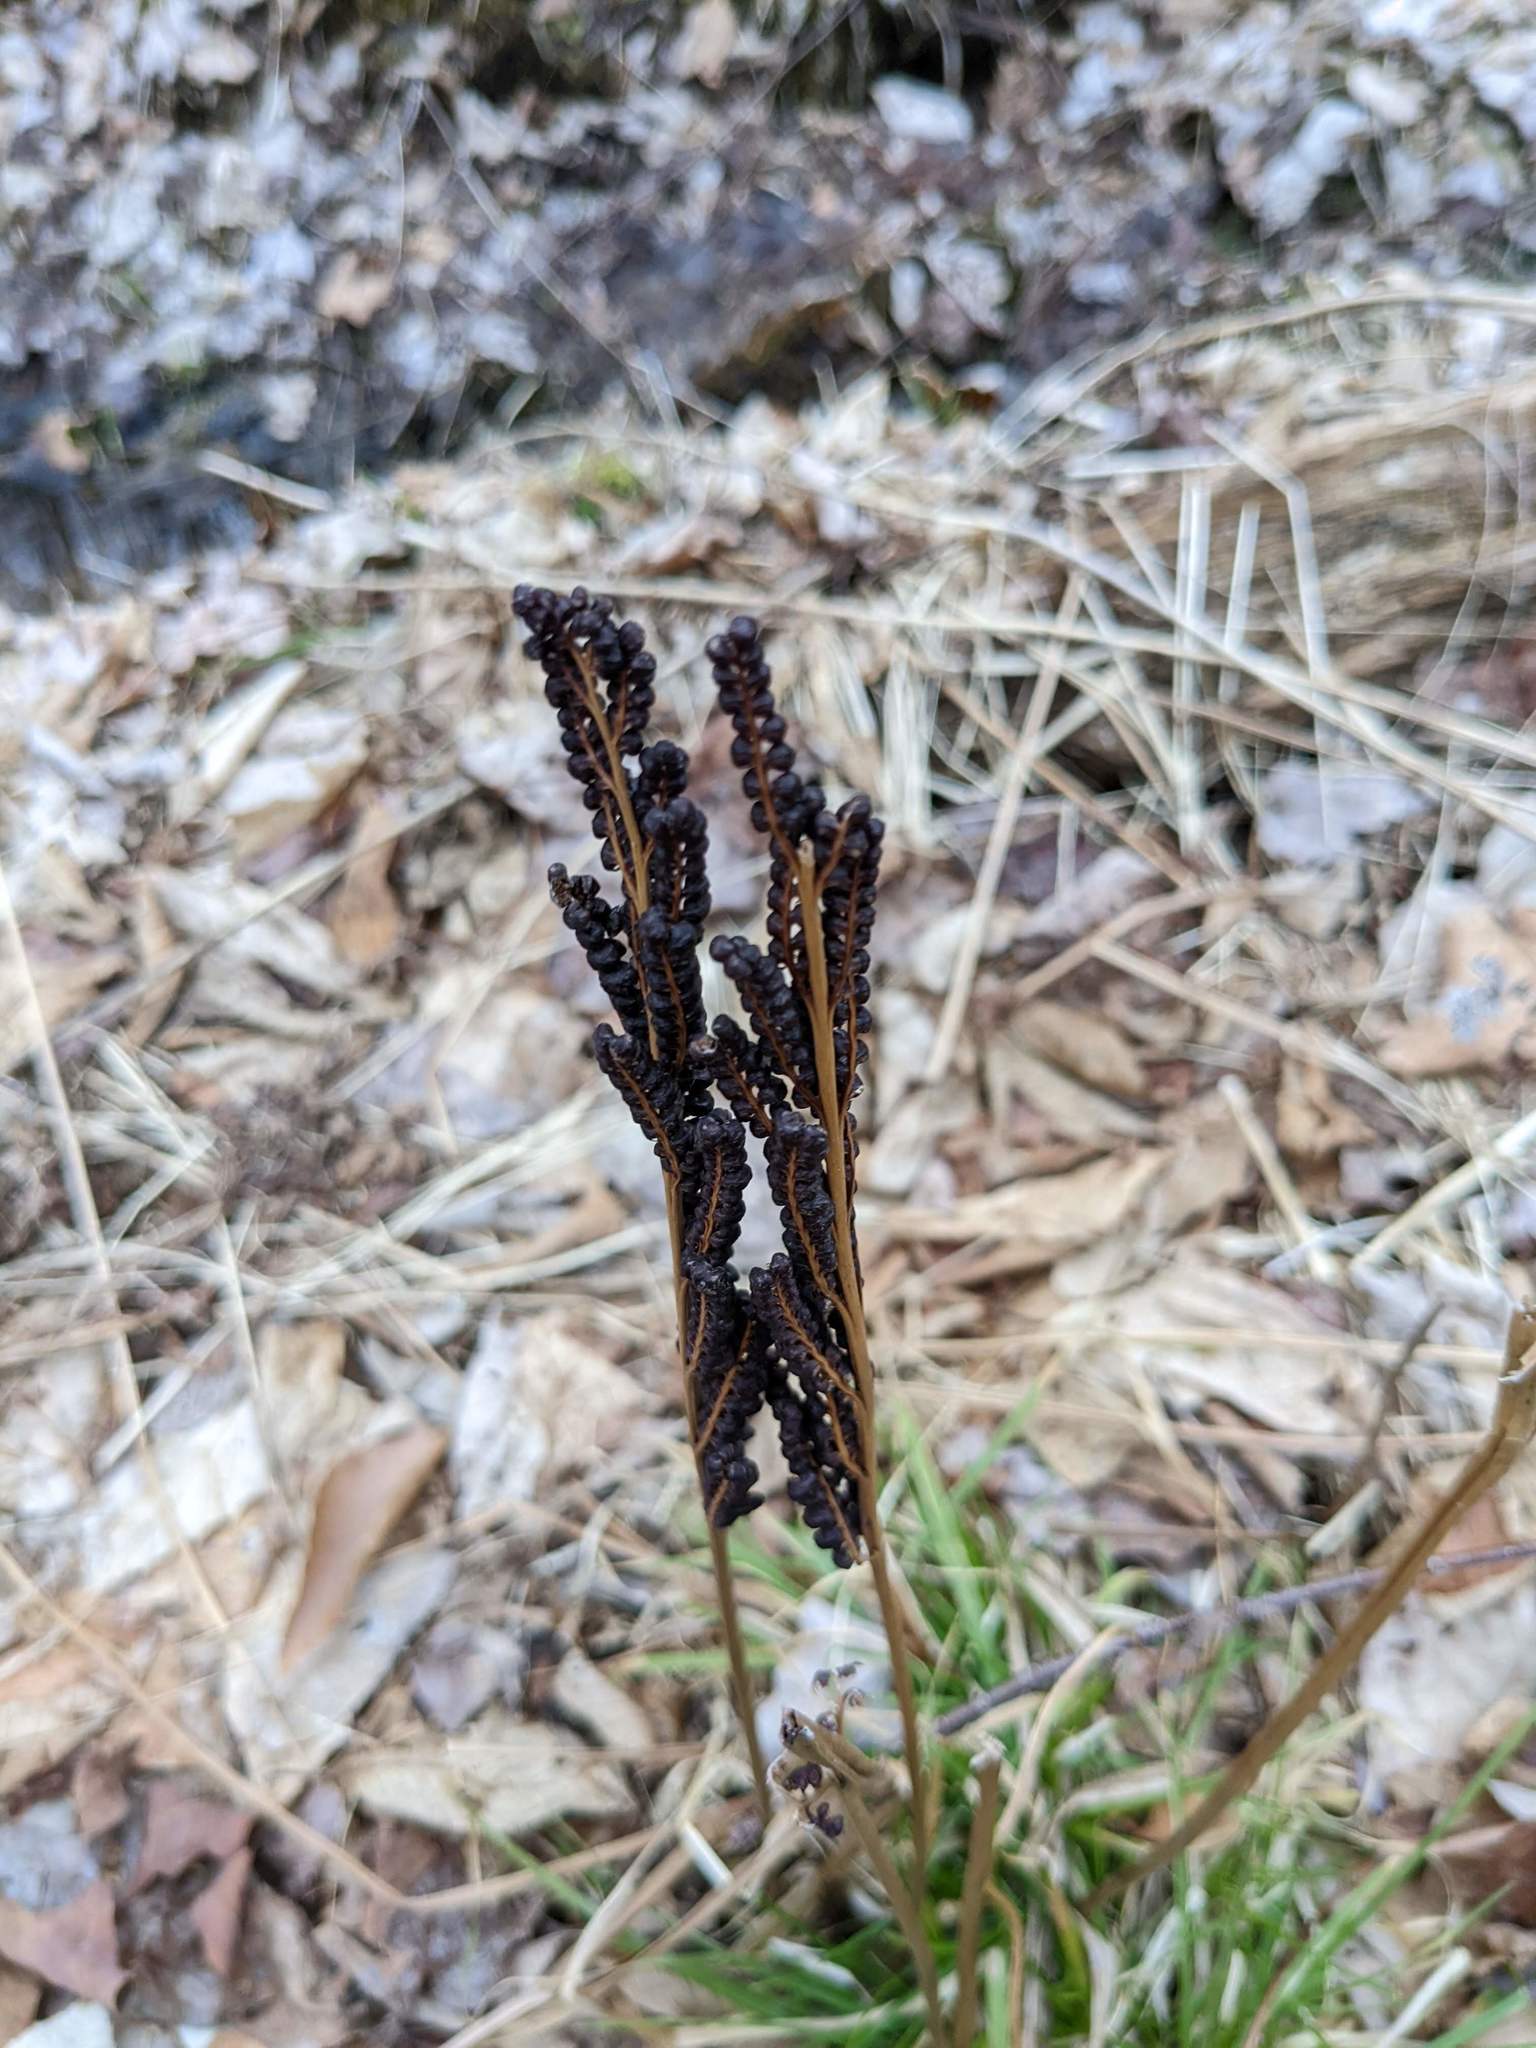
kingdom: Plantae
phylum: Tracheophyta
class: Polypodiopsida
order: Polypodiales
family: Onocleaceae
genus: Onoclea
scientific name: Onoclea sensibilis
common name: Sensitive fern
